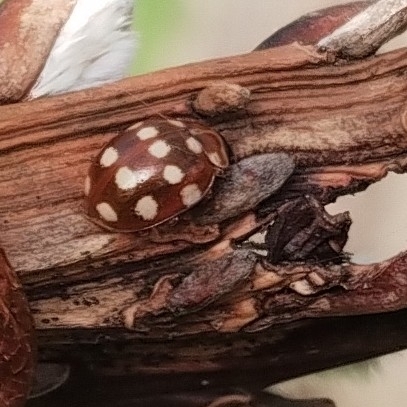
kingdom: Animalia
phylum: Arthropoda
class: Insecta
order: Coleoptera
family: Coccinellidae
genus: Calvia
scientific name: Calvia quatuordecimguttata
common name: Cream-spot ladybird
